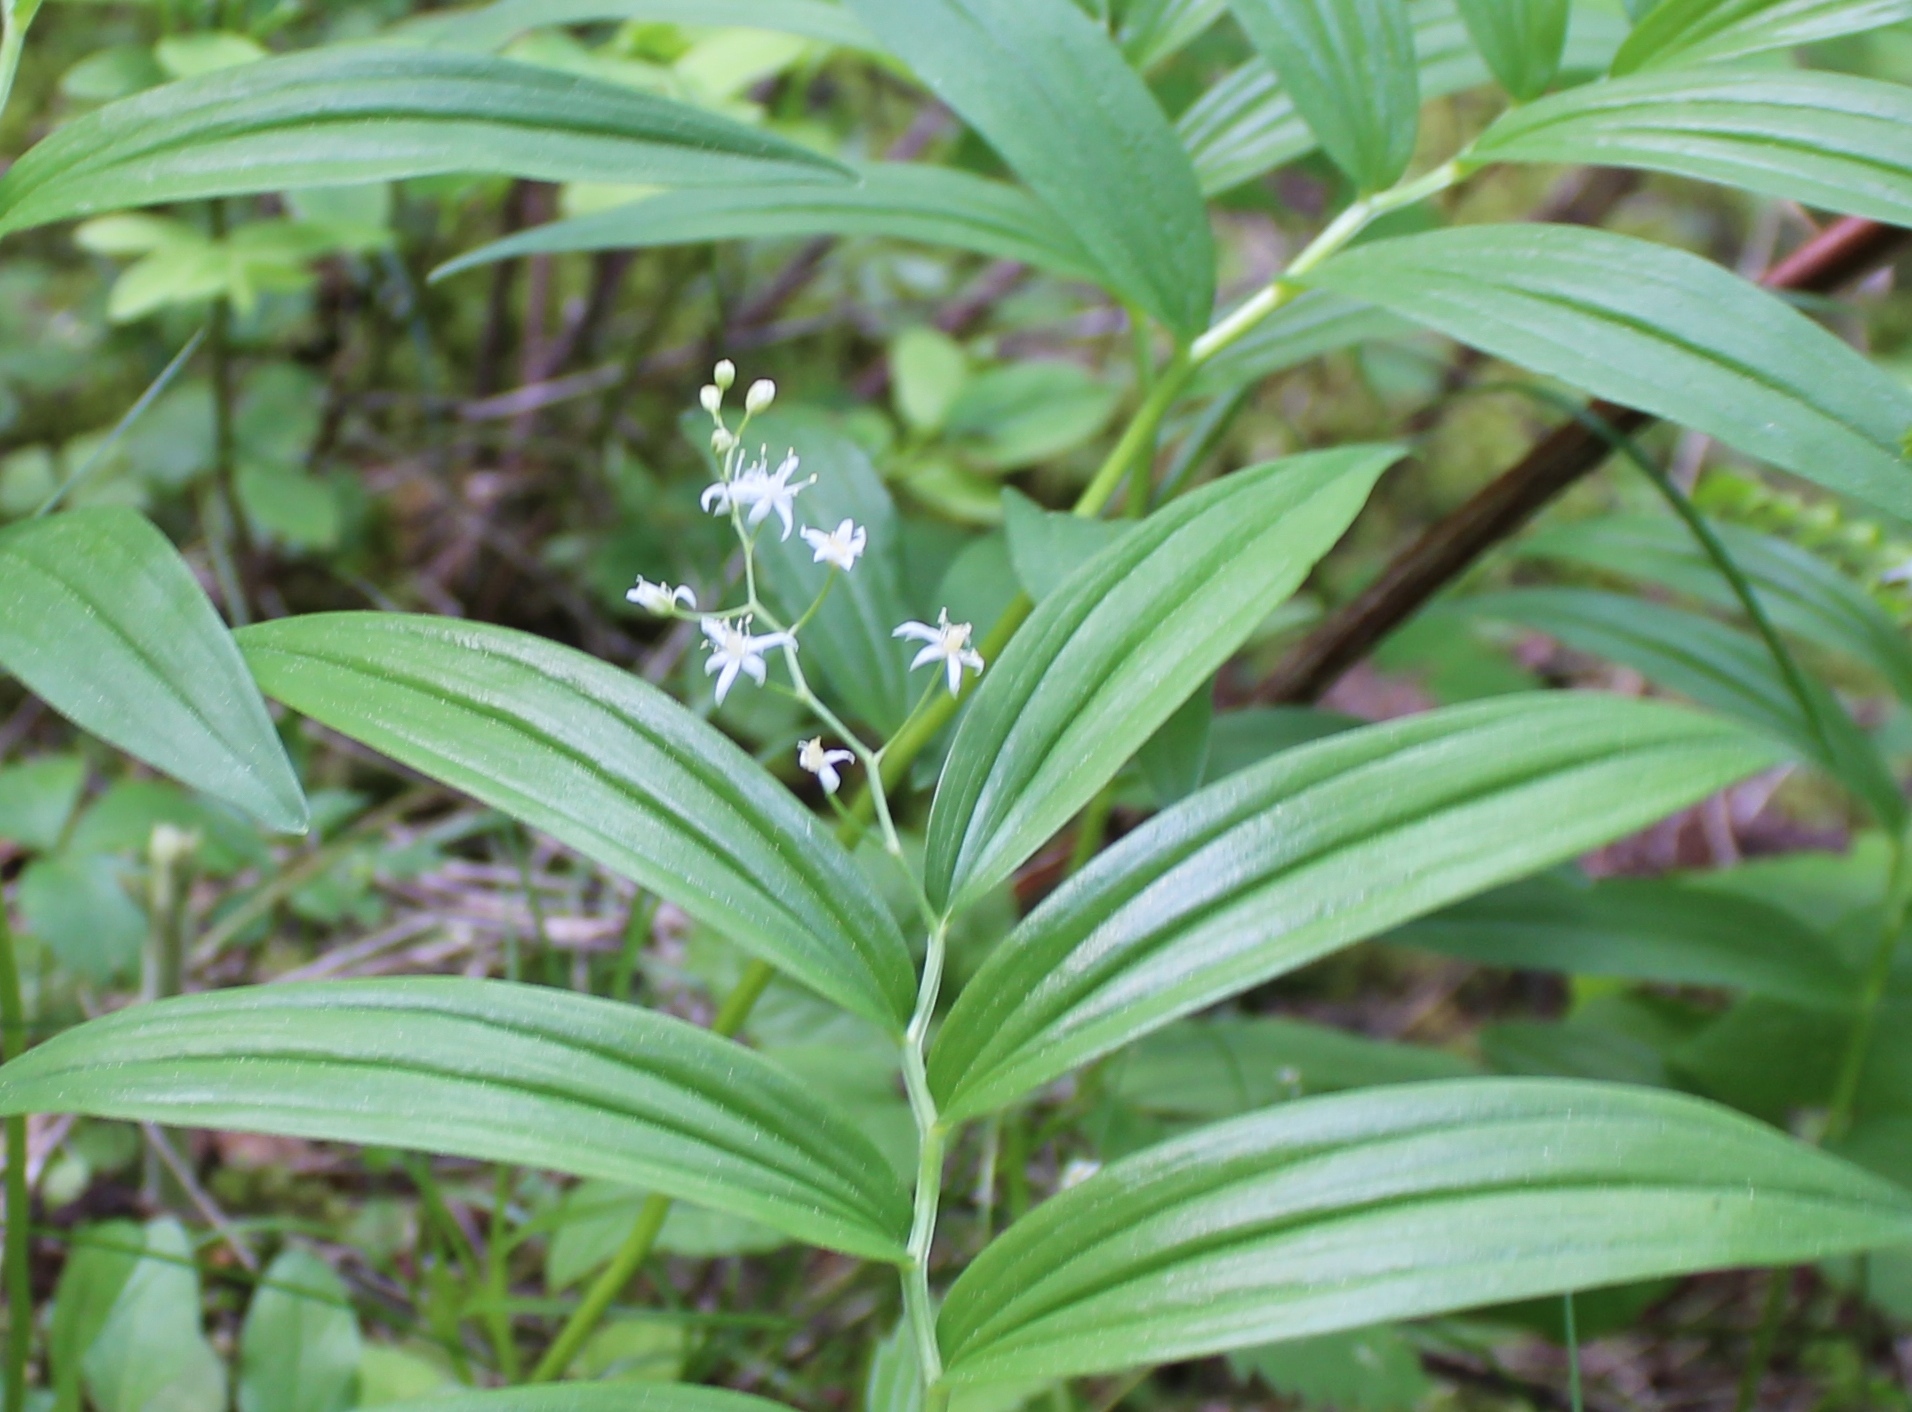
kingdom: Plantae
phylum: Tracheophyta
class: Liliopsida
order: Asparagales
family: Asparagaceae
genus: Maianthemum
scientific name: Maianthemum stellatum
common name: Little false solomon's seal
